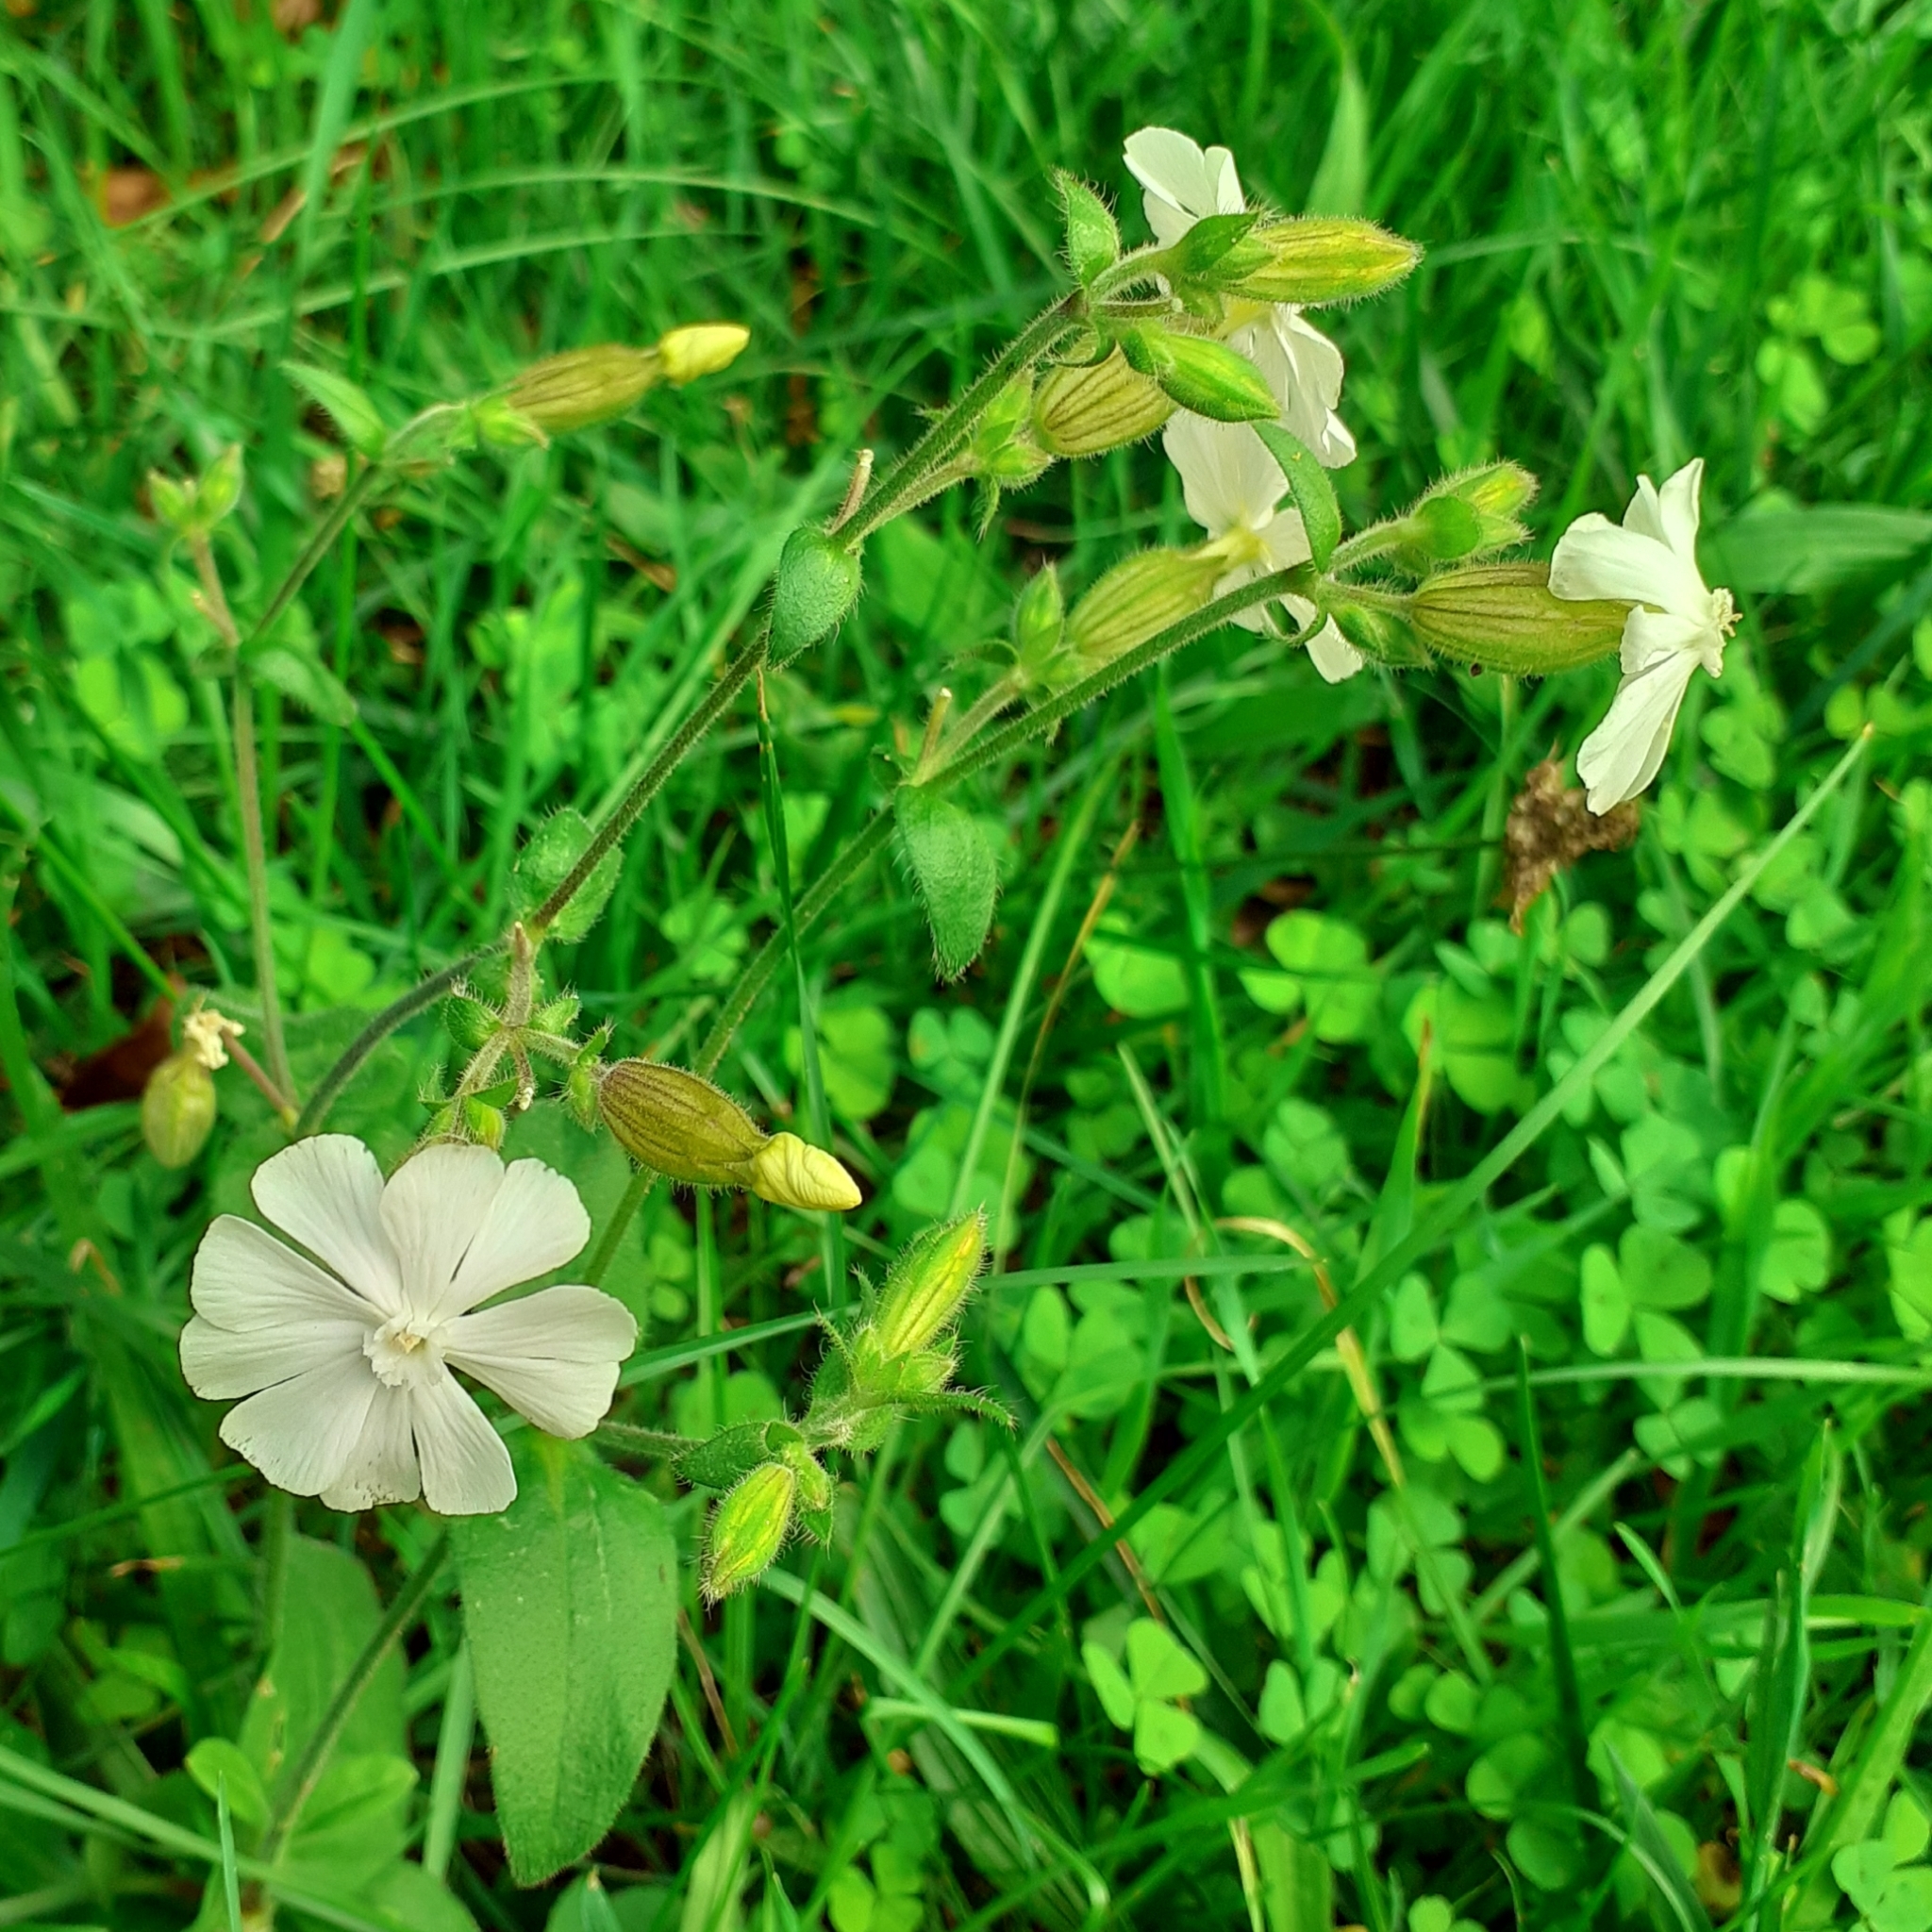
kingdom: Plantae
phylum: Tracheophyta
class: Magnoliopsida
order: Caryophyllales
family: Caryophyllaceae
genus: Silene
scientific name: Silene latifolia
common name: White campion
